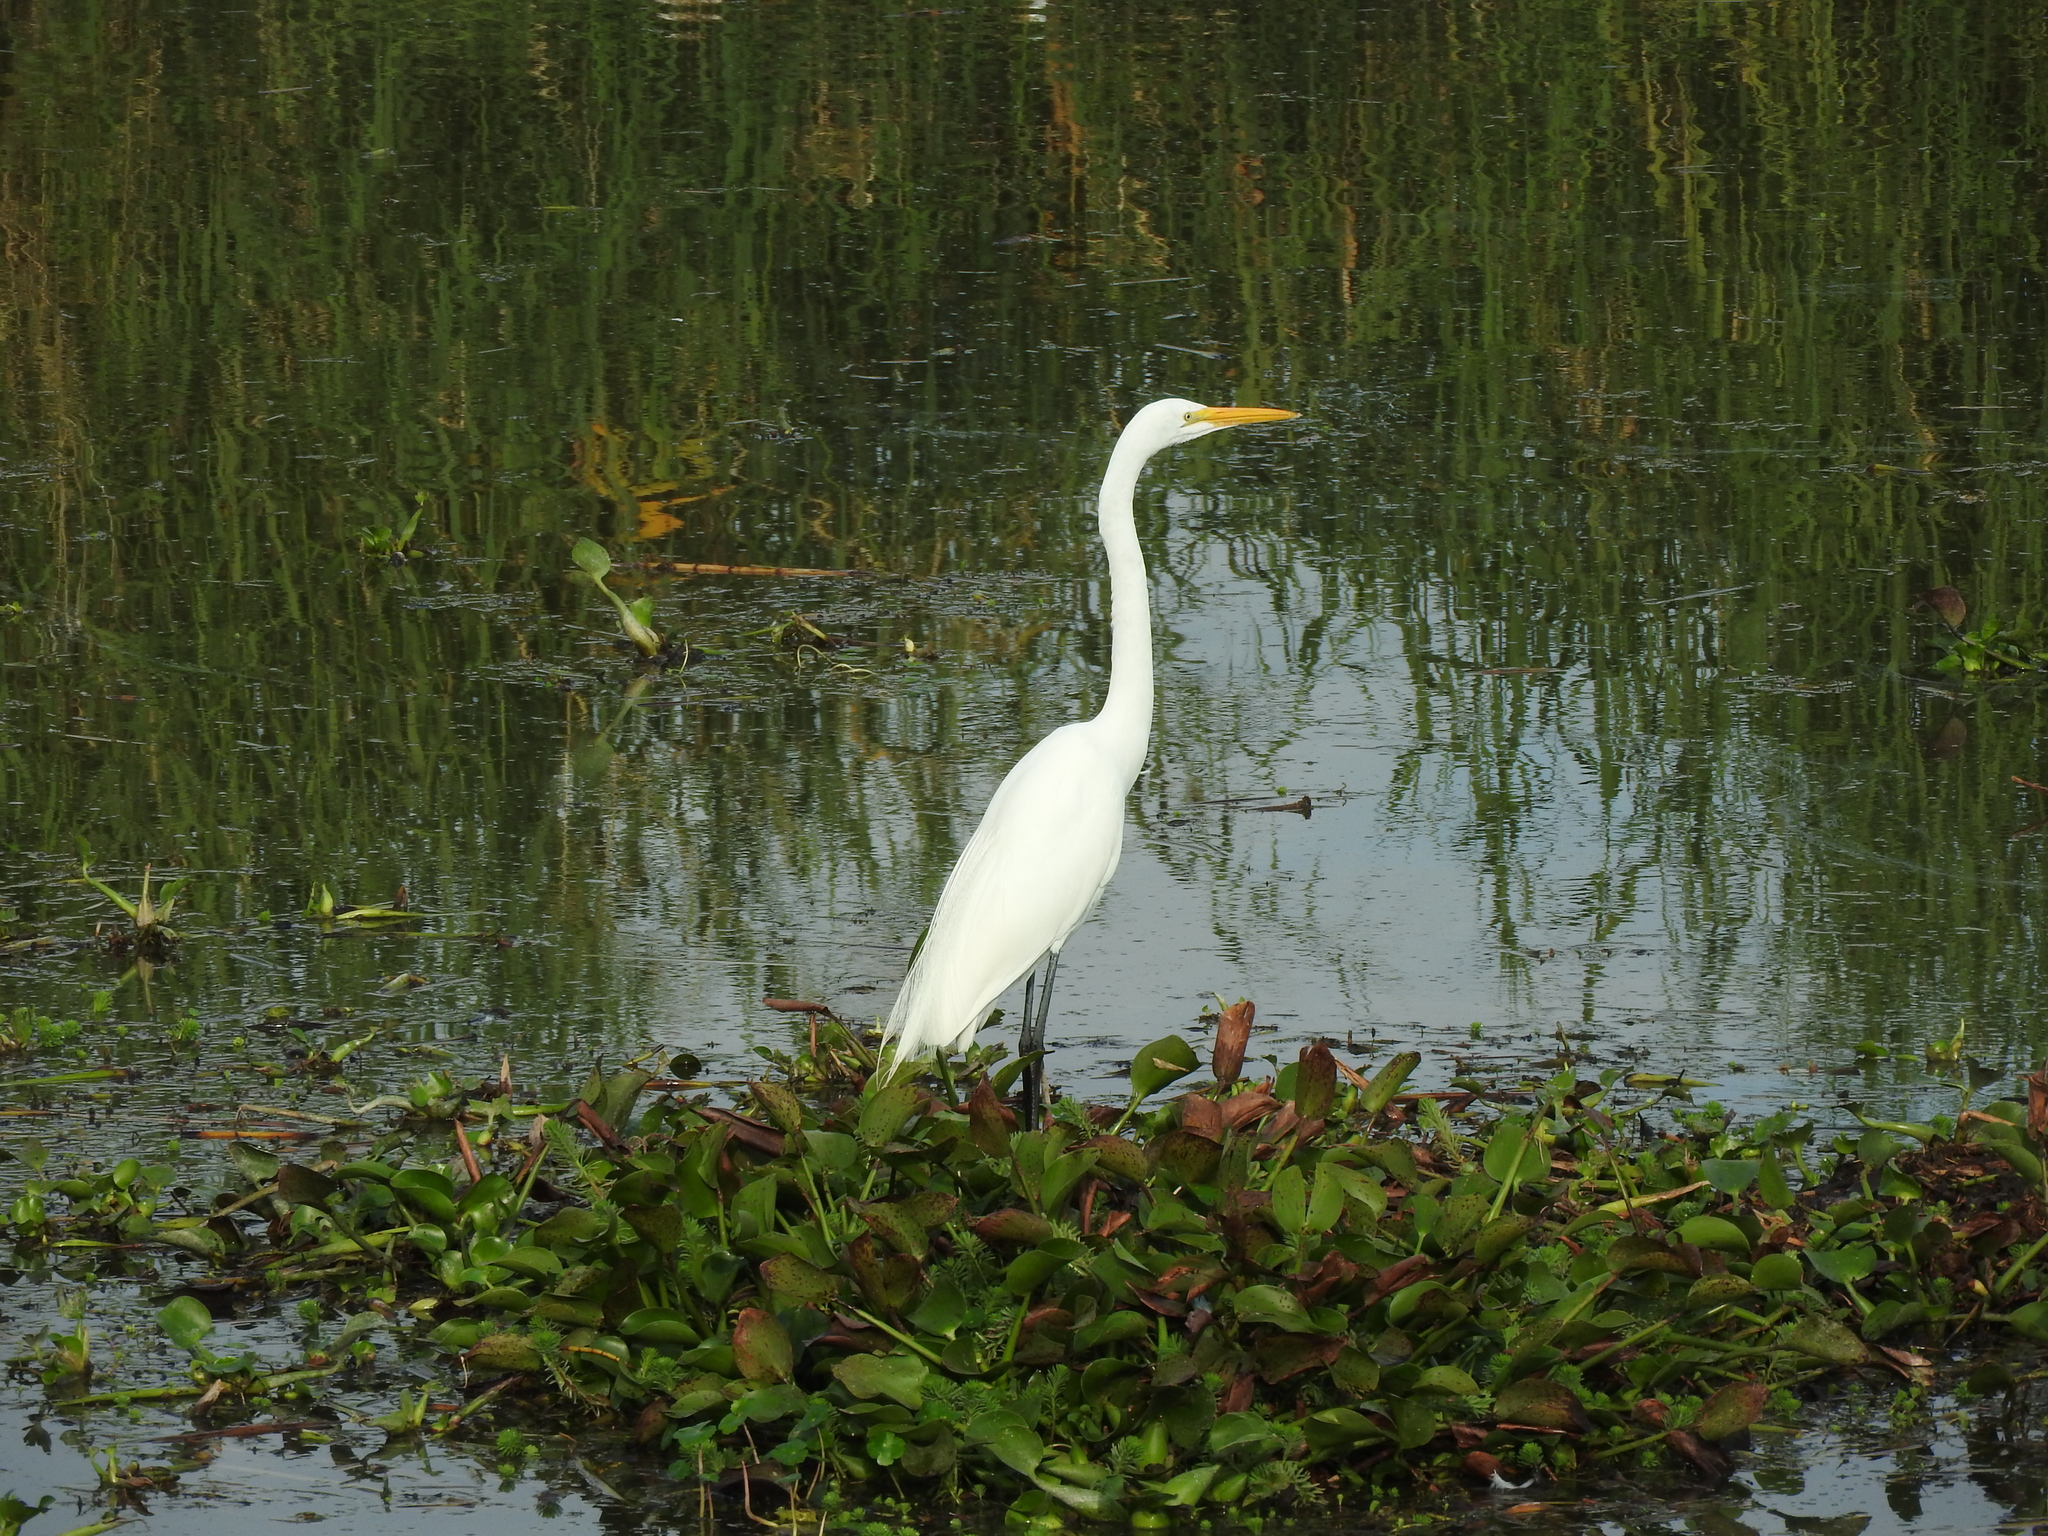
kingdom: Animalia
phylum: Chordata
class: Aves
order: Pelecaniformes
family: Ardeidae
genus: Ardea
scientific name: Ardea alba
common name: Great egret
